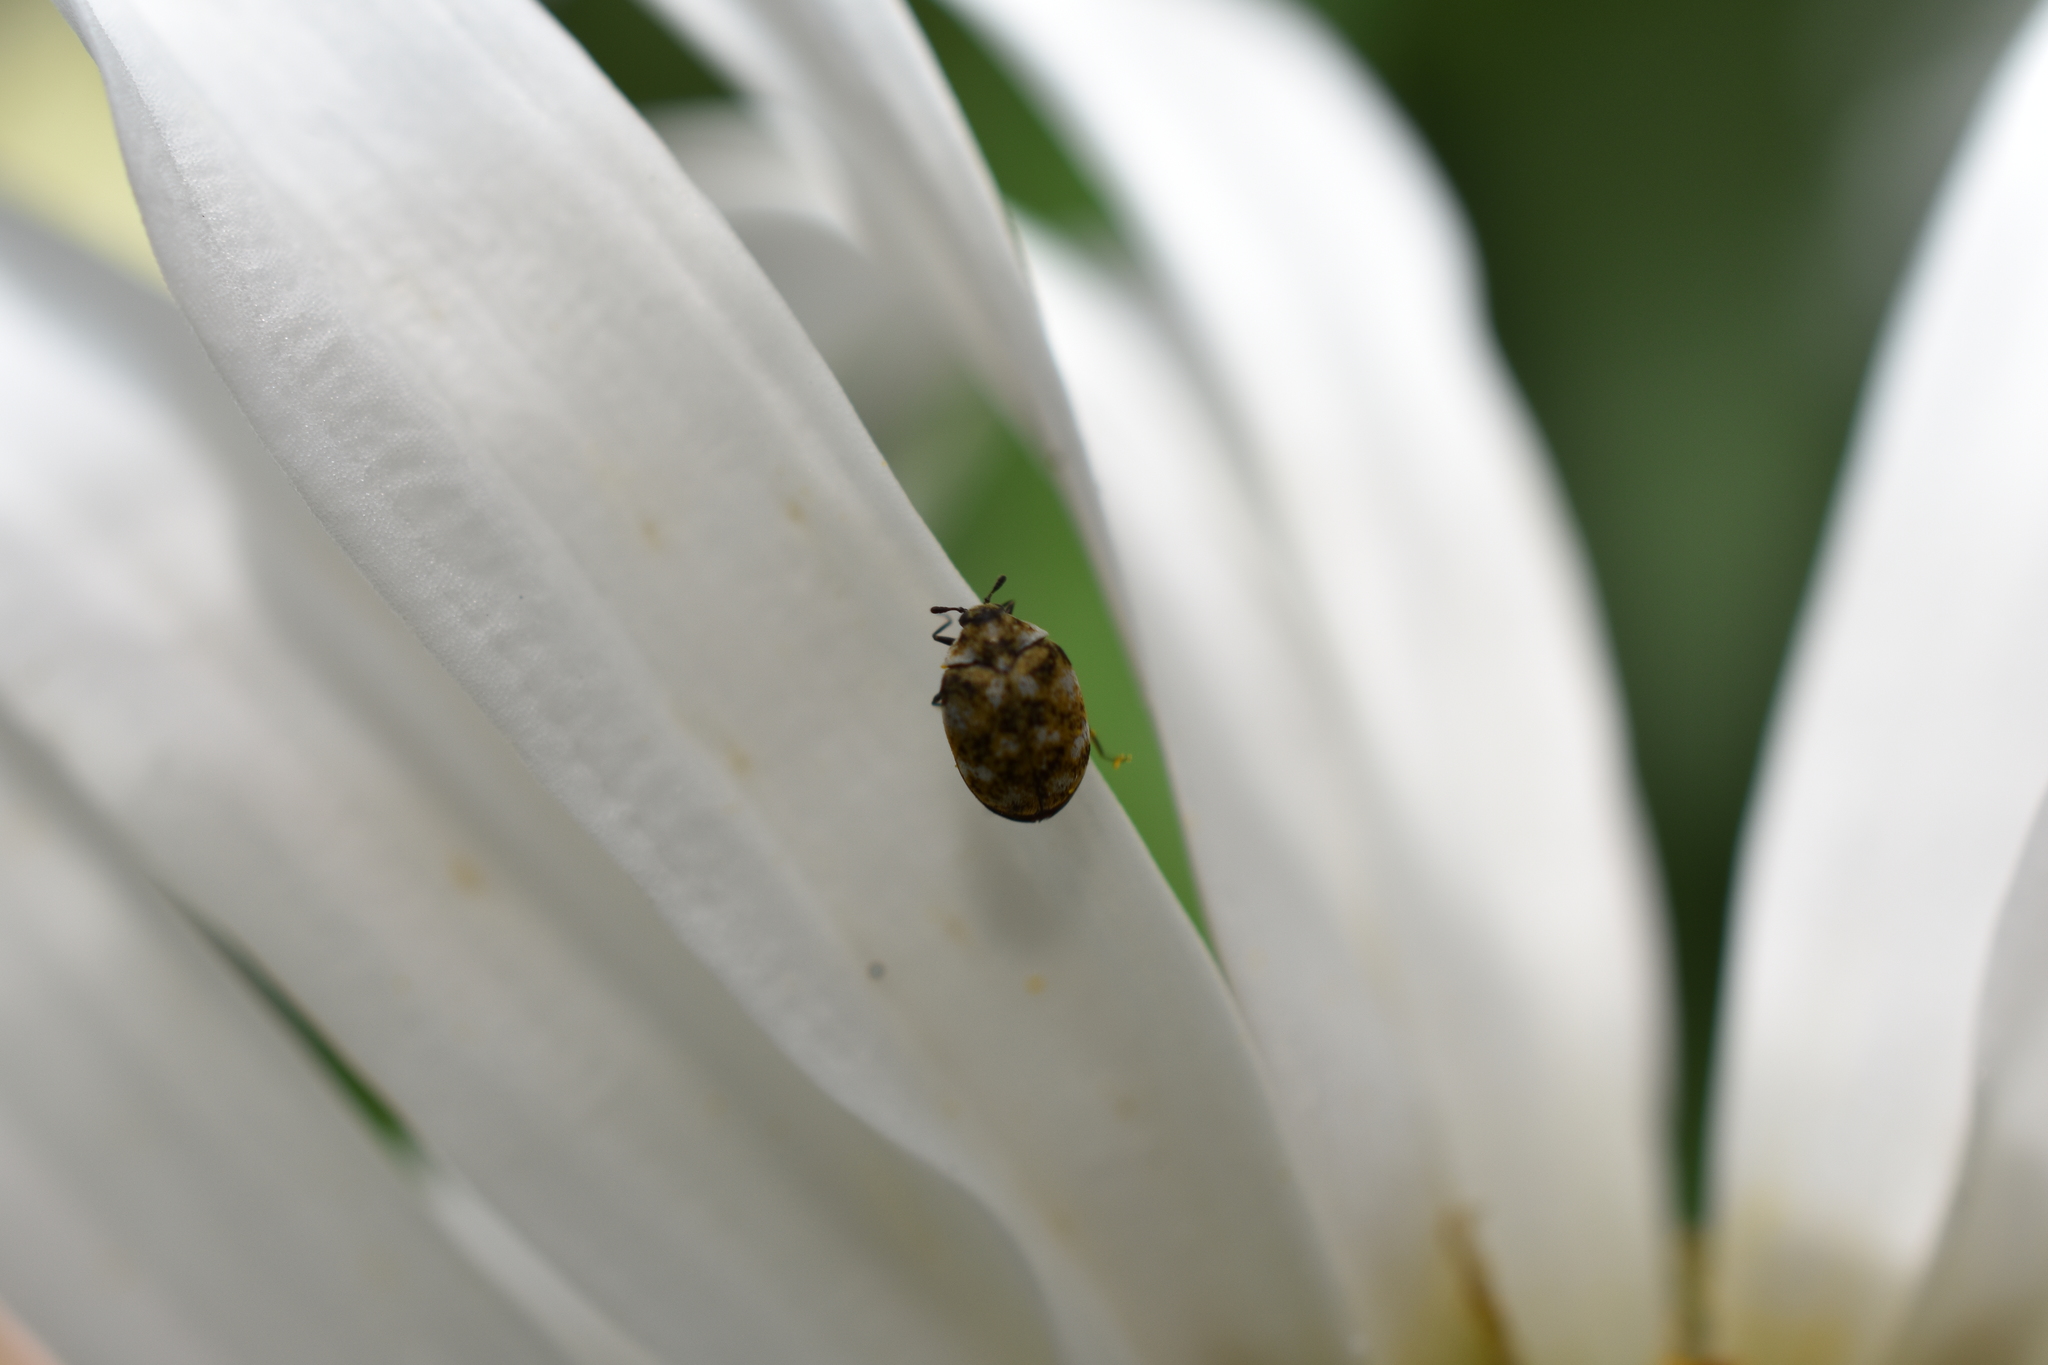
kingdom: Animalia
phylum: Arthropoda
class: Insecta
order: Coleoptera
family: Dermestidae
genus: Anthrenus
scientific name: Anthrenus verbasci
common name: Varied carpet beetle
